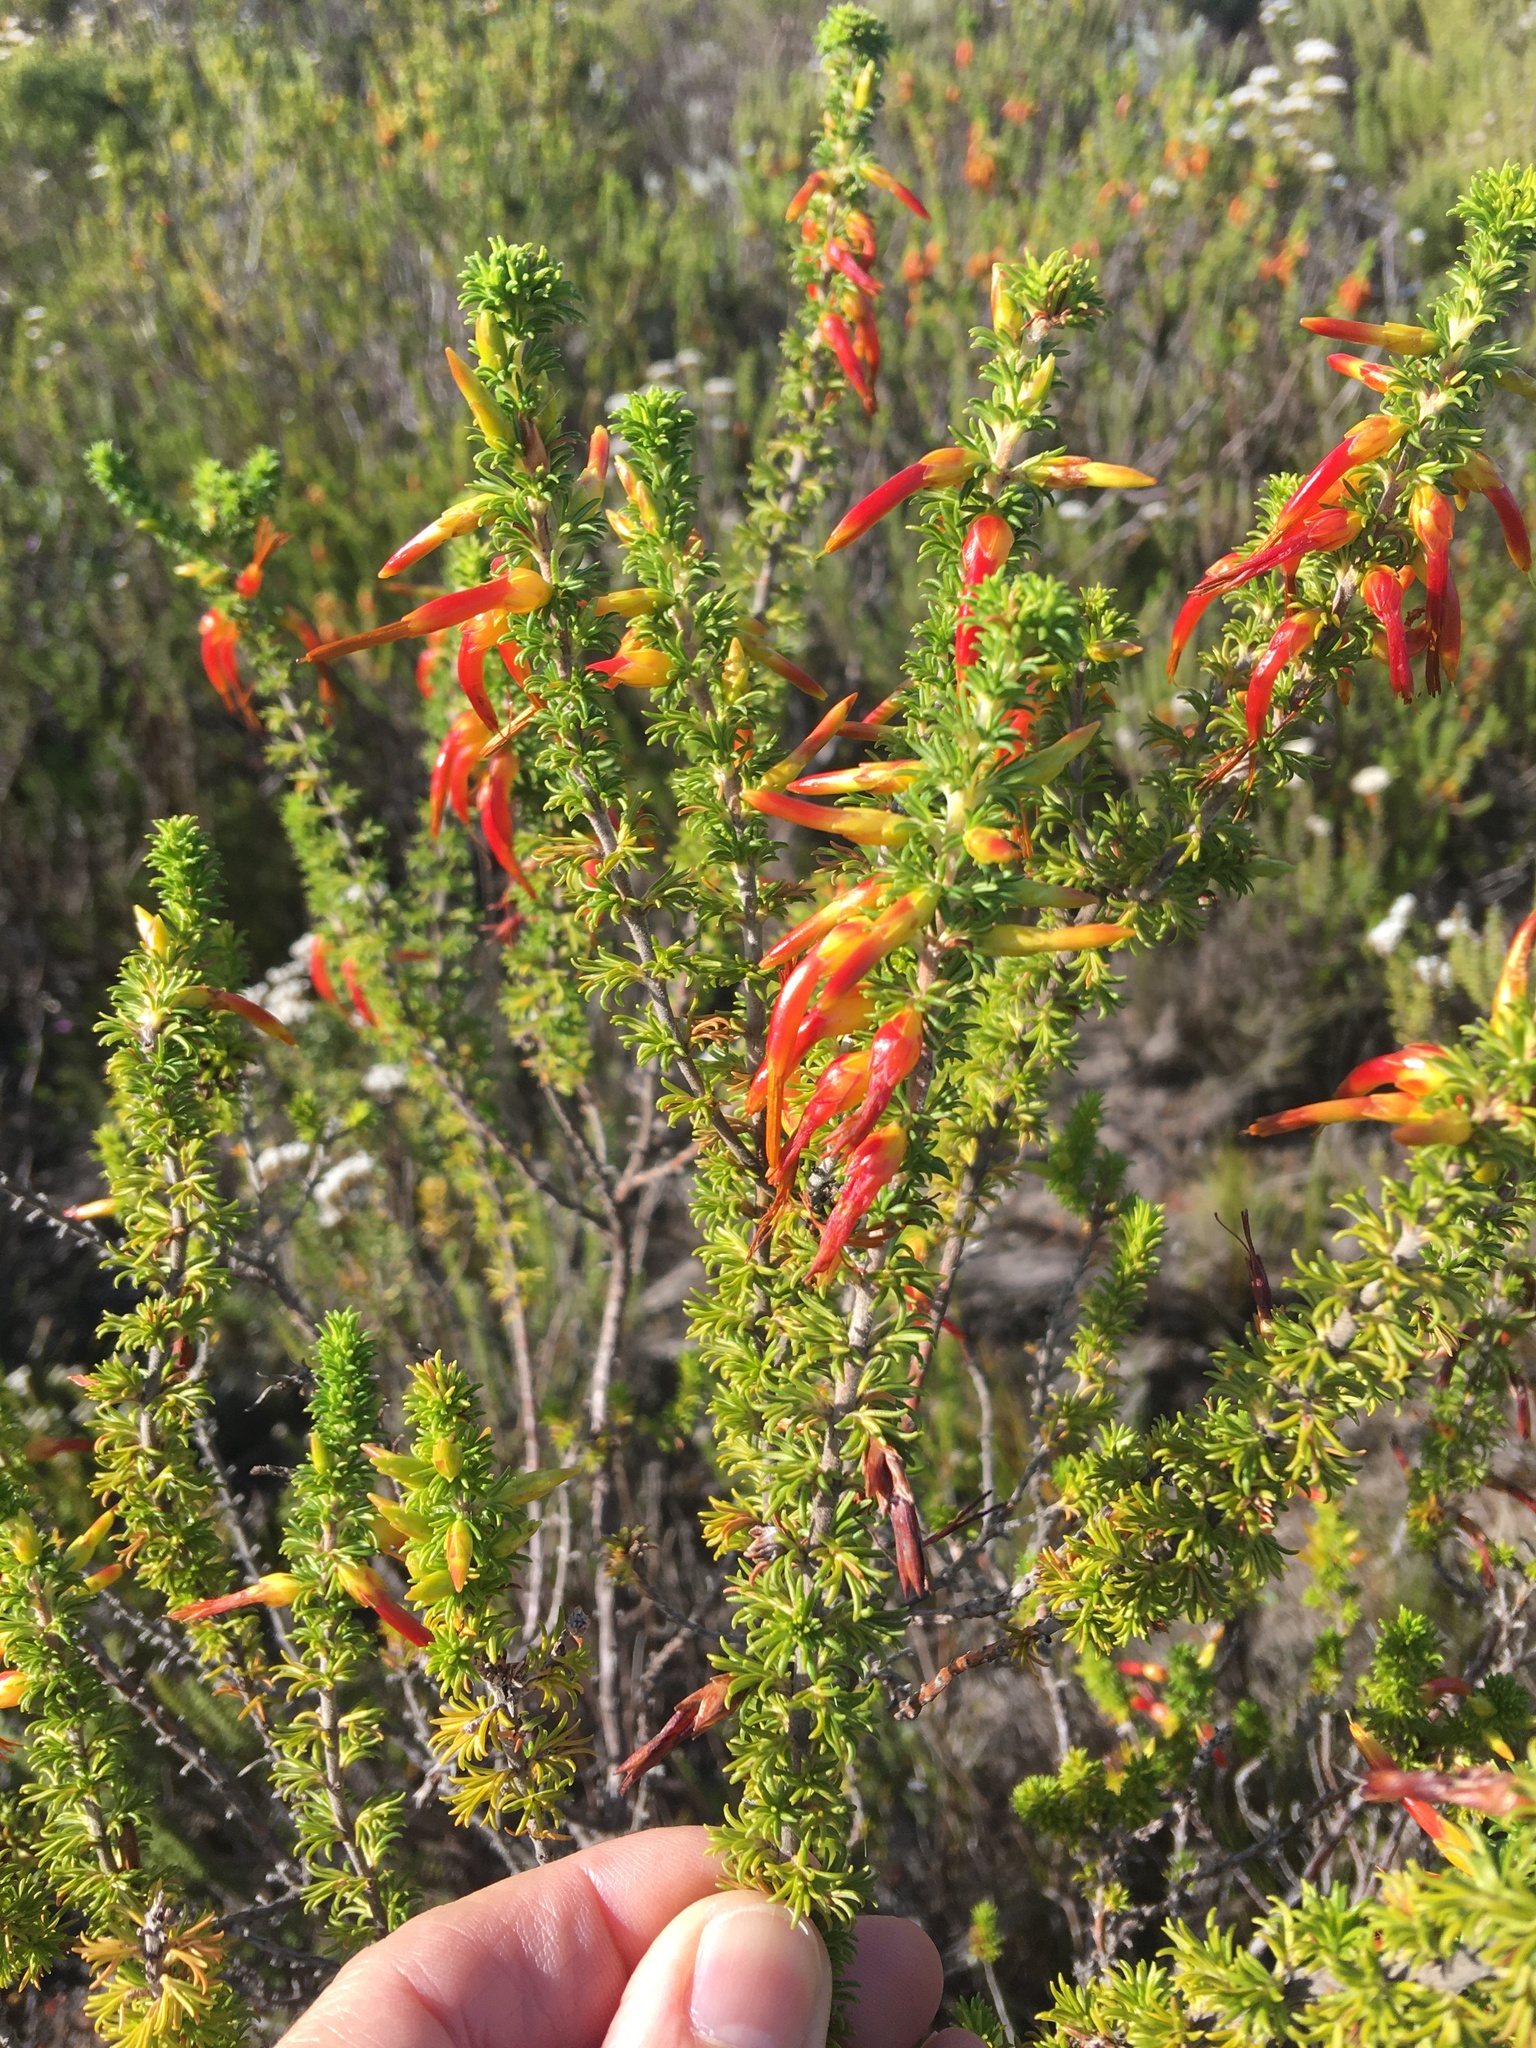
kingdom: Plantae
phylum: Tracheophyta
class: Magnoliopsida
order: Ericales
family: Ericaceae
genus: Erica
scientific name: Erica coccinea
